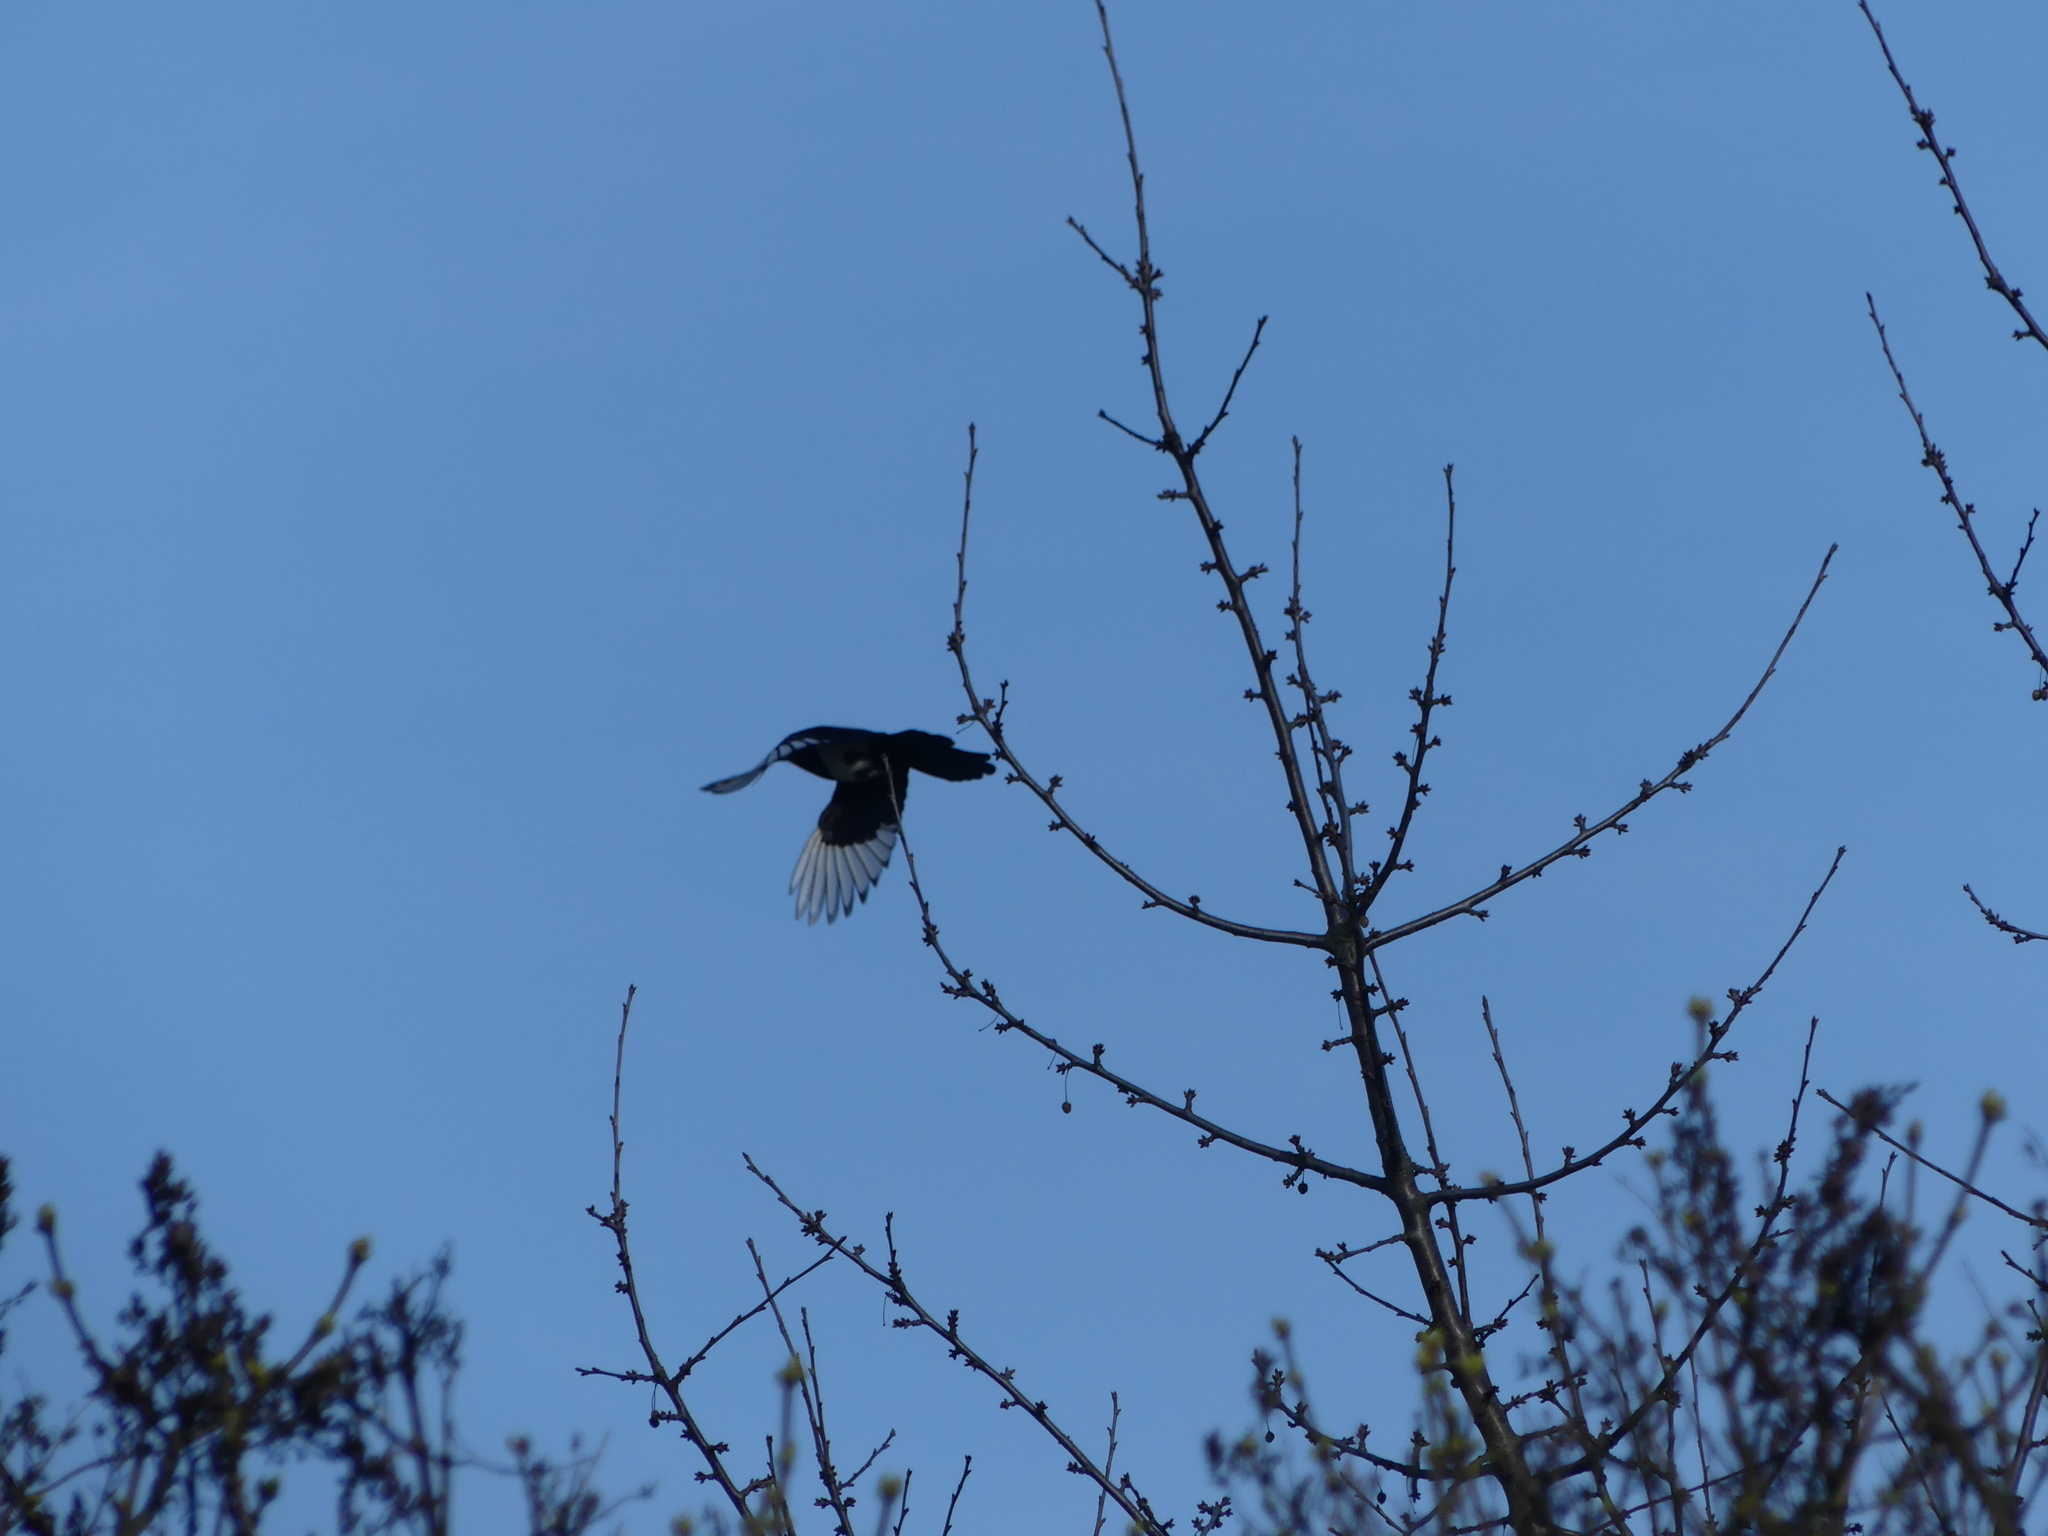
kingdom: Animalia
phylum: Chordata
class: Aves
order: Passeriformes
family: Corvidae
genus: Pica
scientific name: Pica pica
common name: Eurasian magpie
